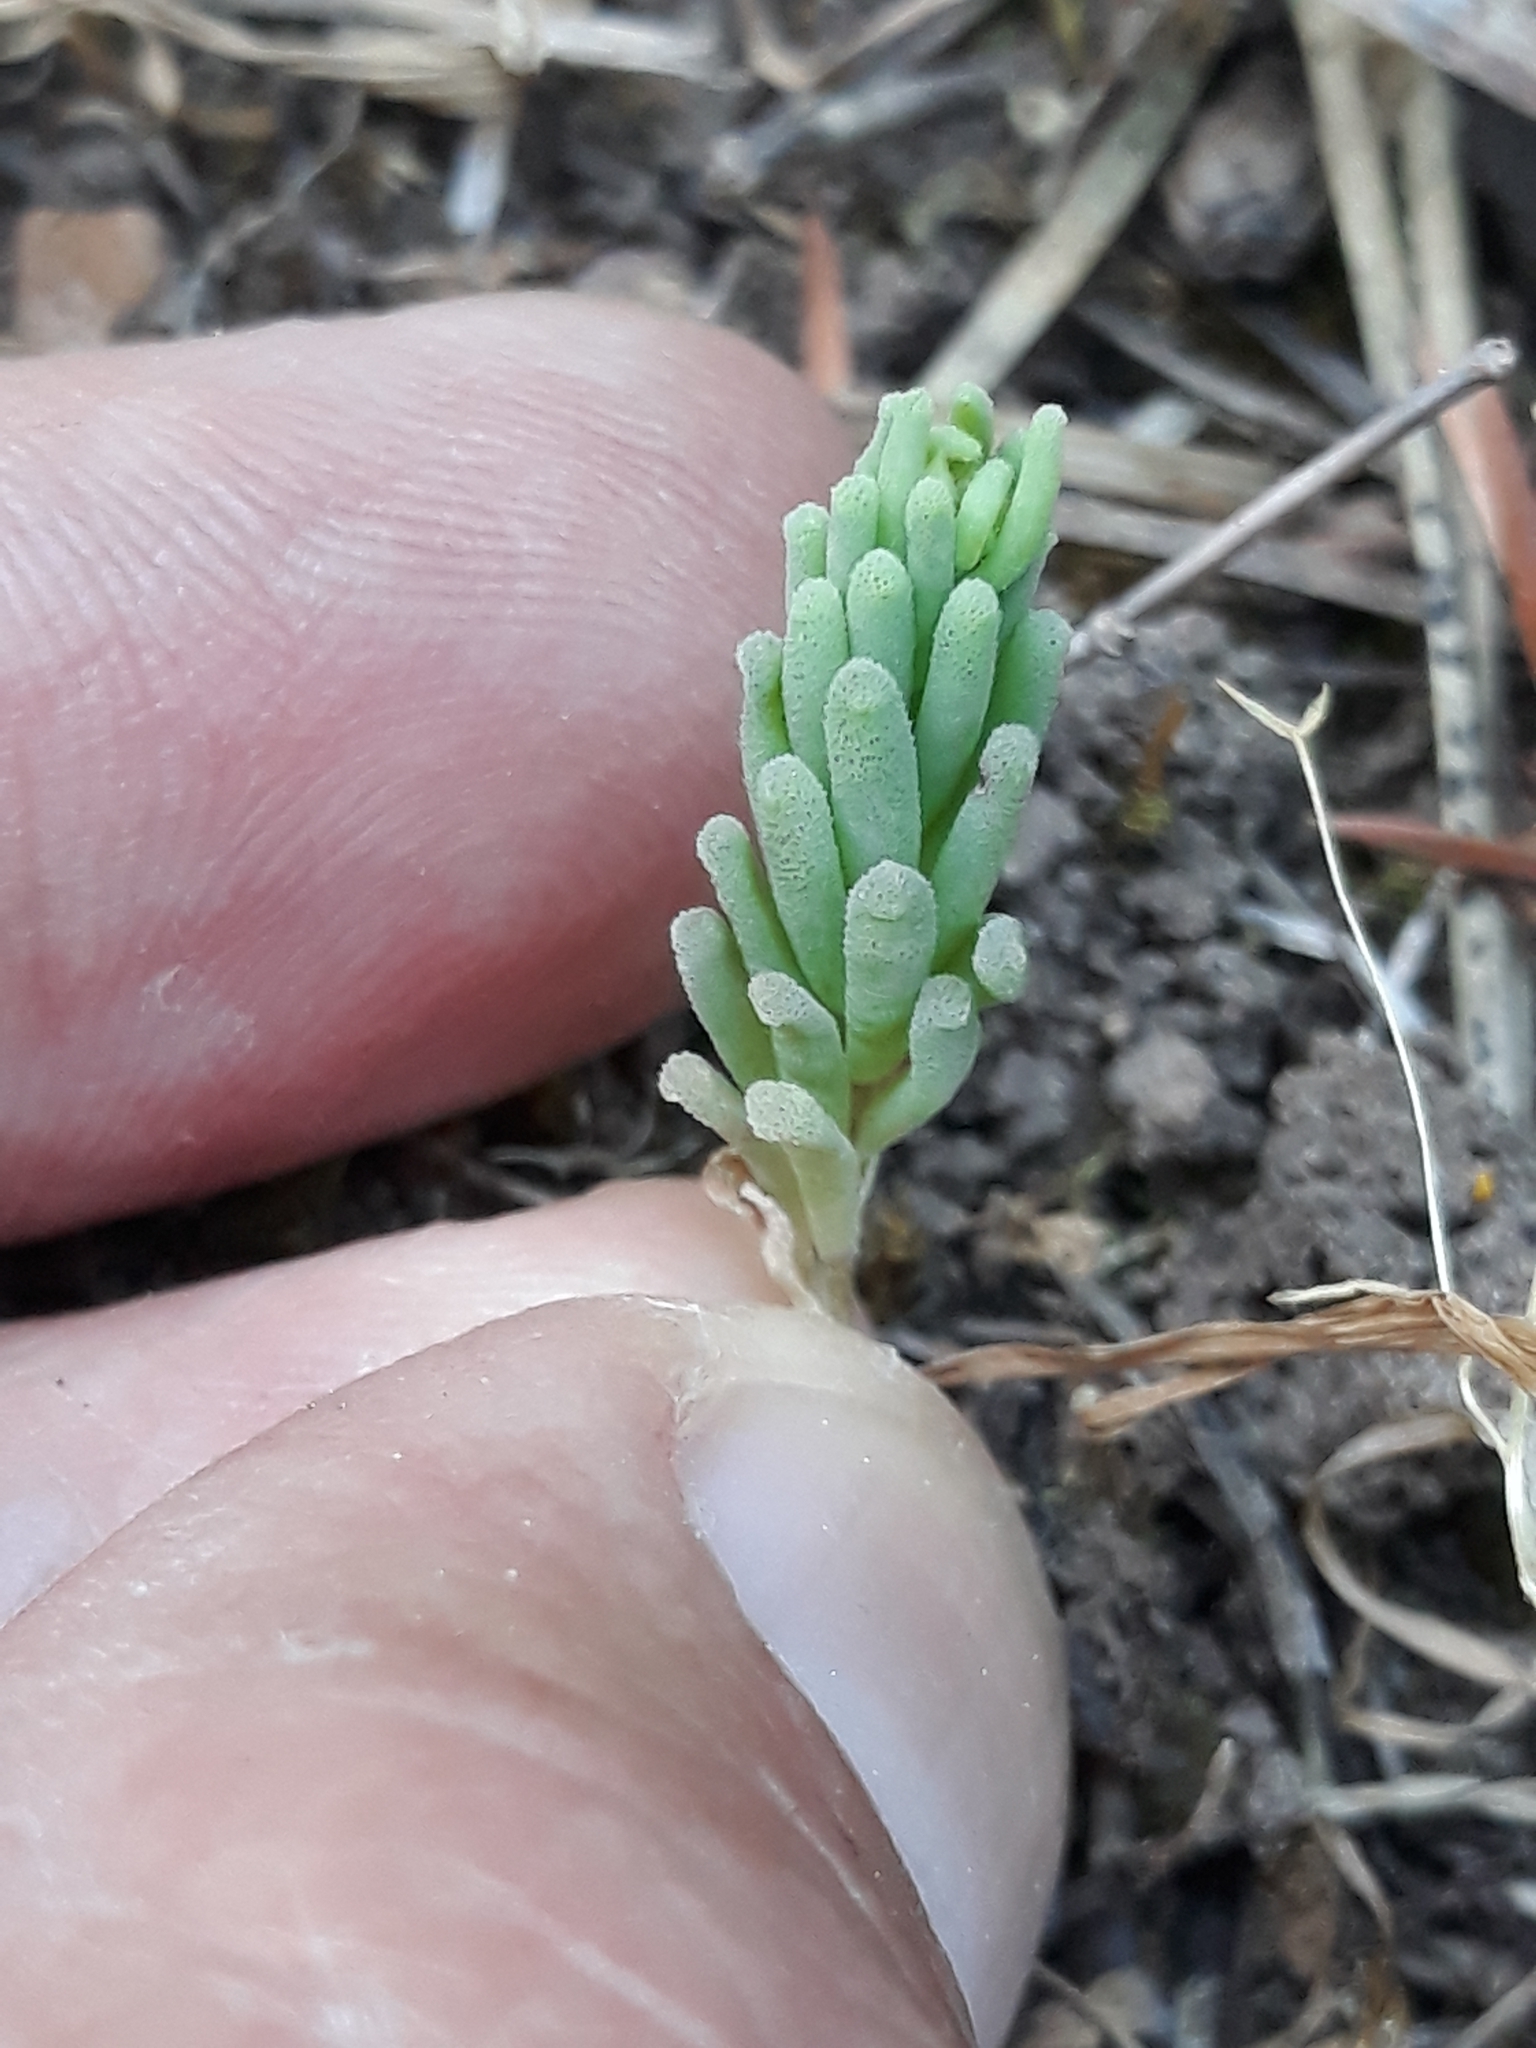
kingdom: Plantae
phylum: Tracheophyta
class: Magnoliopsida
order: Saxifragales
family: Crassulaceae
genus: Sedum
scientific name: Sedum rubens
